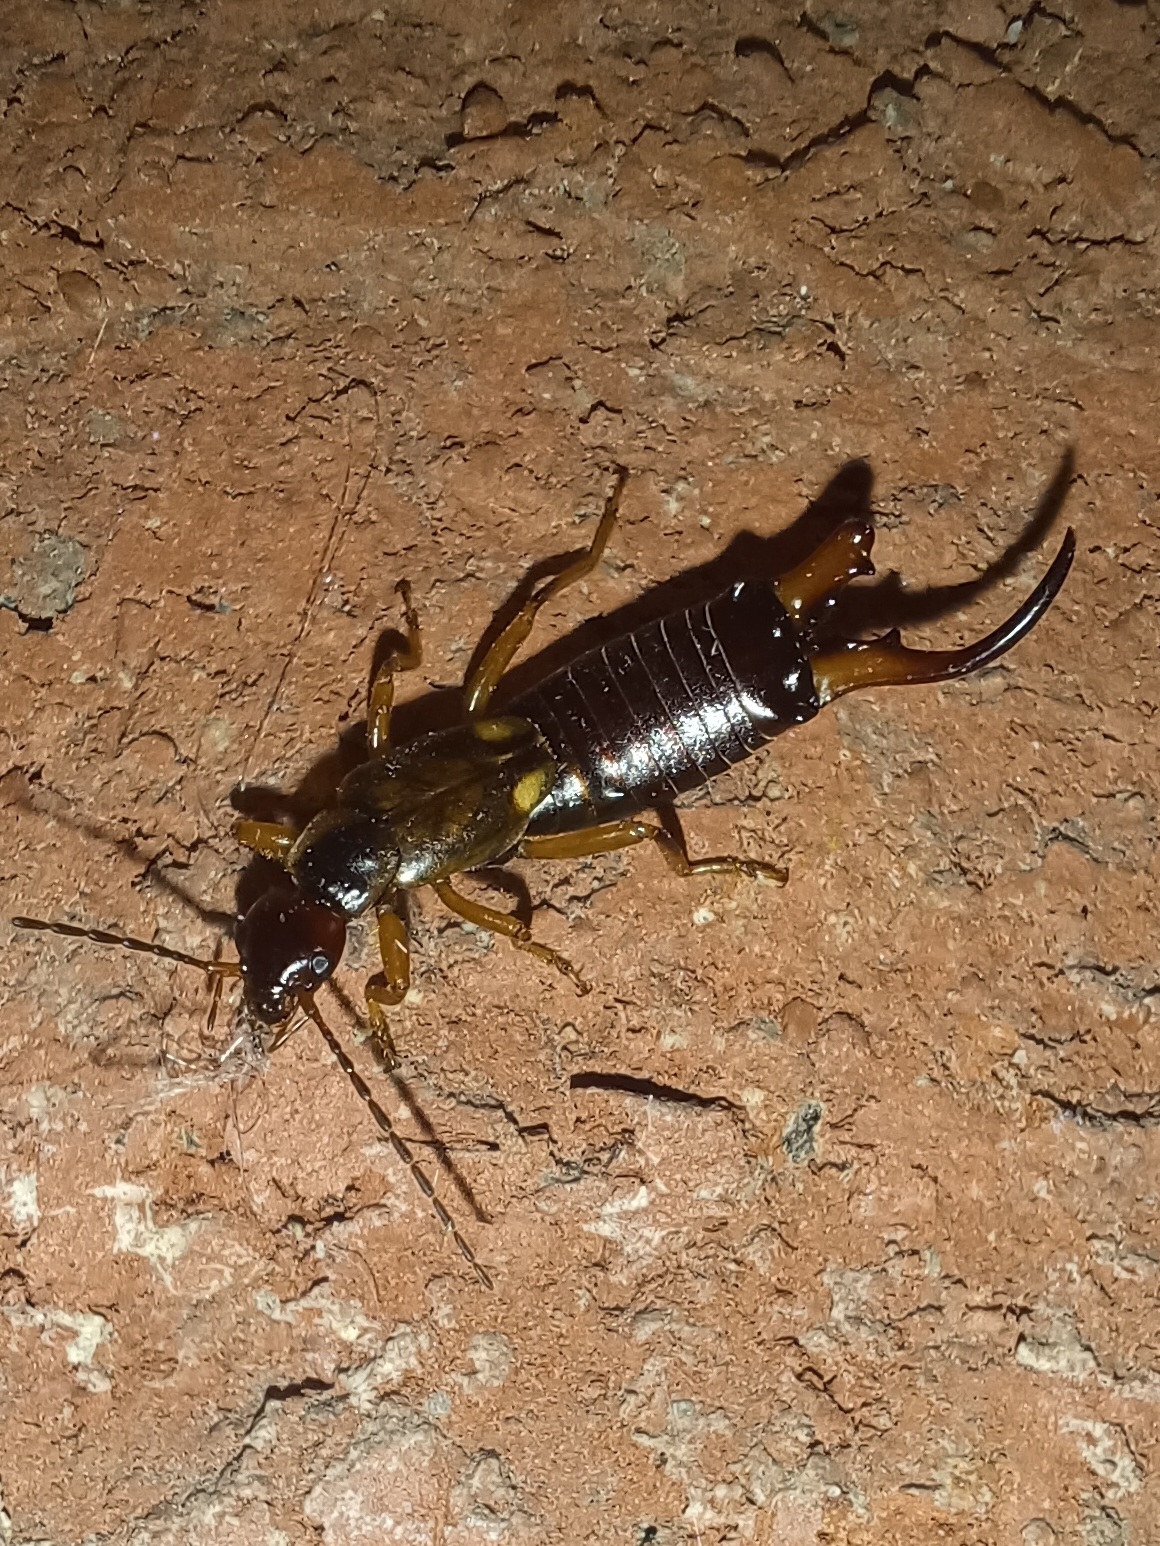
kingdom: Animalia
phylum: Arthropoda
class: Insecta
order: Dermaptera
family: Forficulidae
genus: Forficula
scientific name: Forficula
